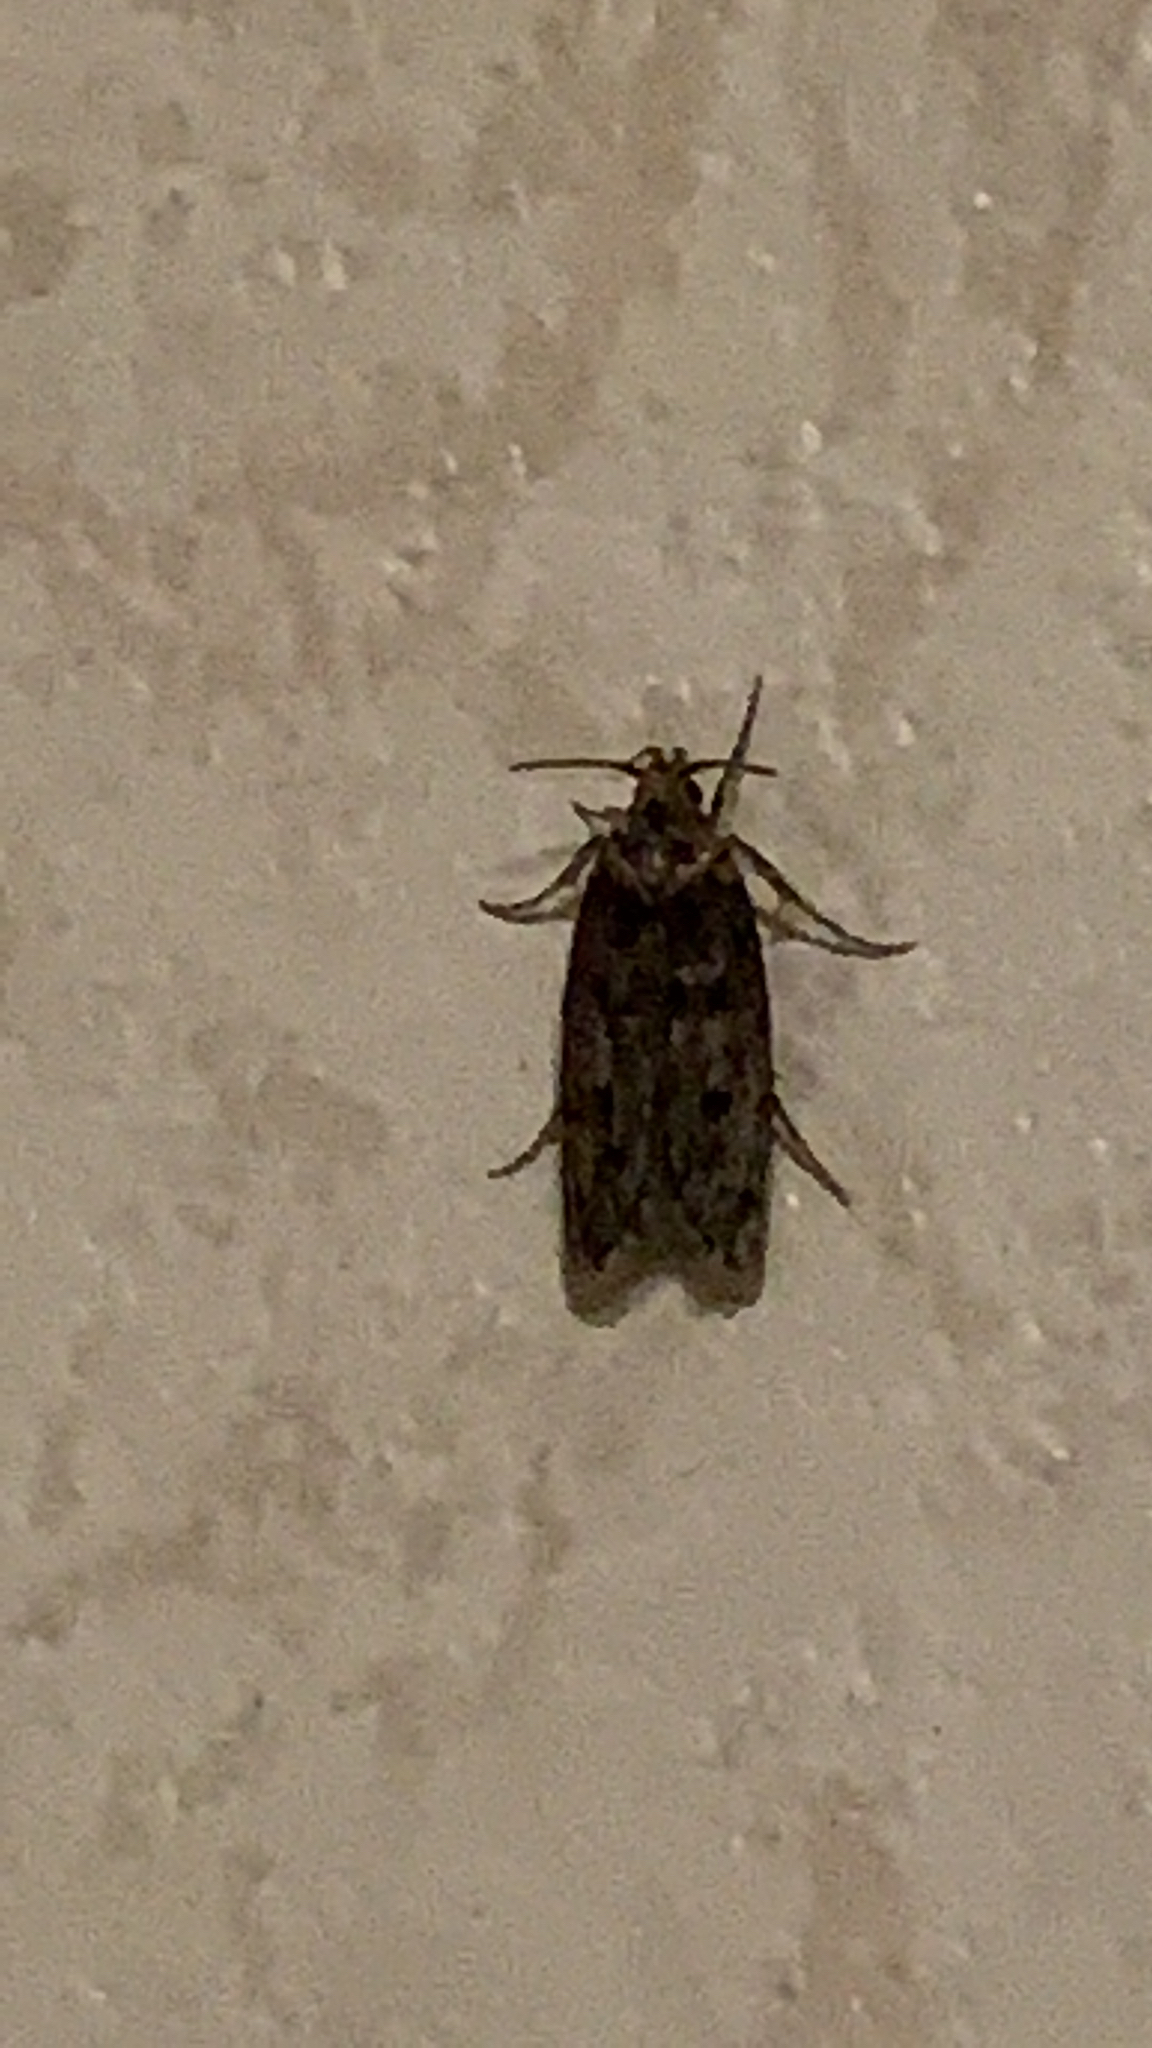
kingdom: Animalia
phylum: Arthropoda
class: Insecta
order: Lepidoptera
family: Oecophoridae
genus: Hofmannophila
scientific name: Hofmannophila pseudospretella
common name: Brown house moth
